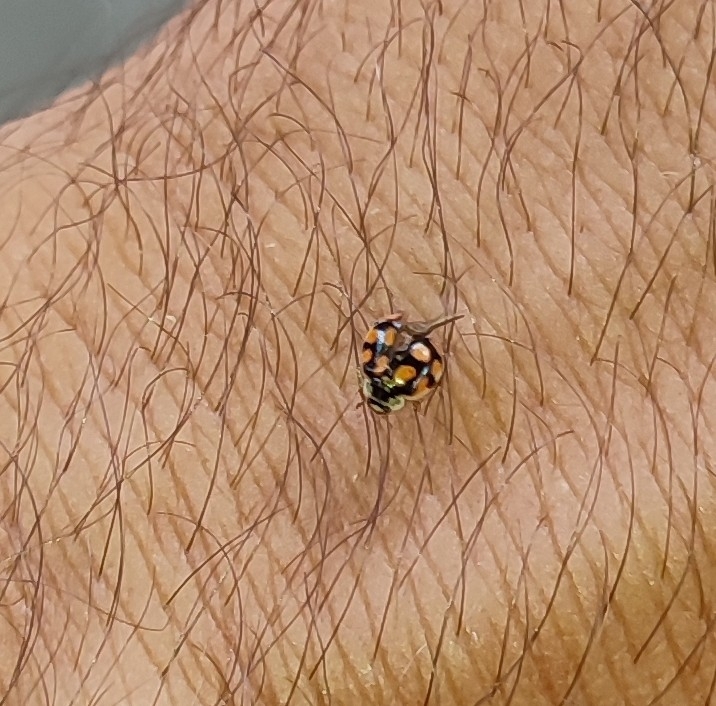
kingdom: Animalia
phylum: Arthropoda
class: Insecta
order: Coleoptera
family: Coccinellidae
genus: Adalia
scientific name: Adalia decempunctata
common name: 10-spot ladybird
